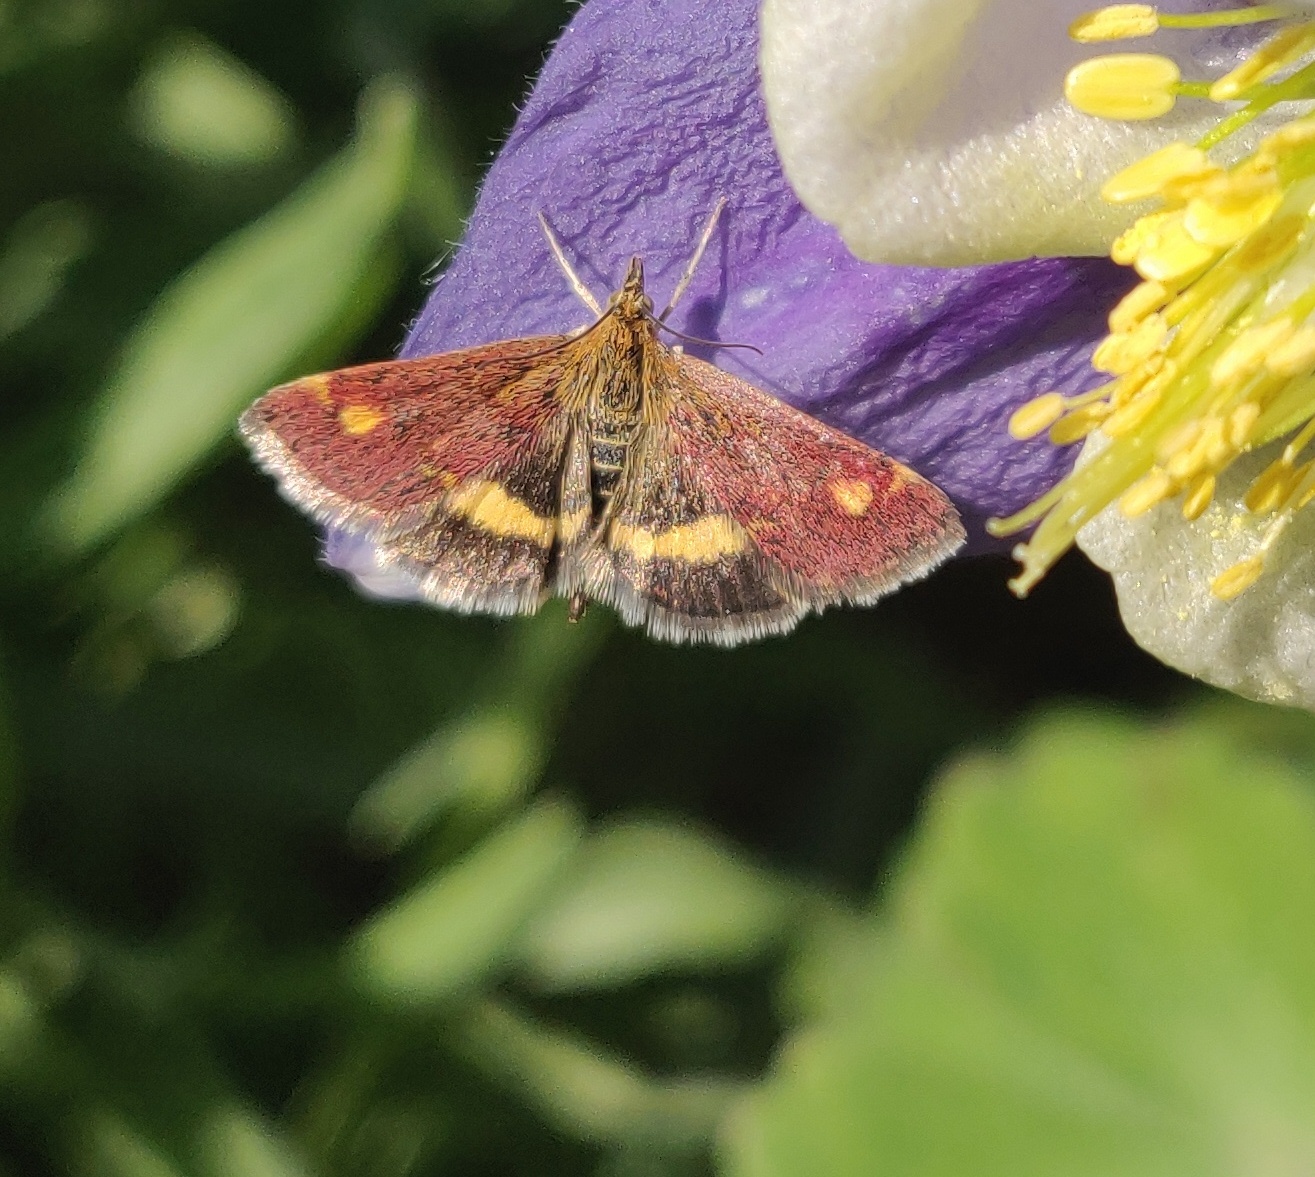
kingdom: Animalia
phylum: Arthropoda
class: Insecta
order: Lepidoptera
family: Crambidae
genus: Pyrausta
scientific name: Pyrausta aurata
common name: Small purple & gold
